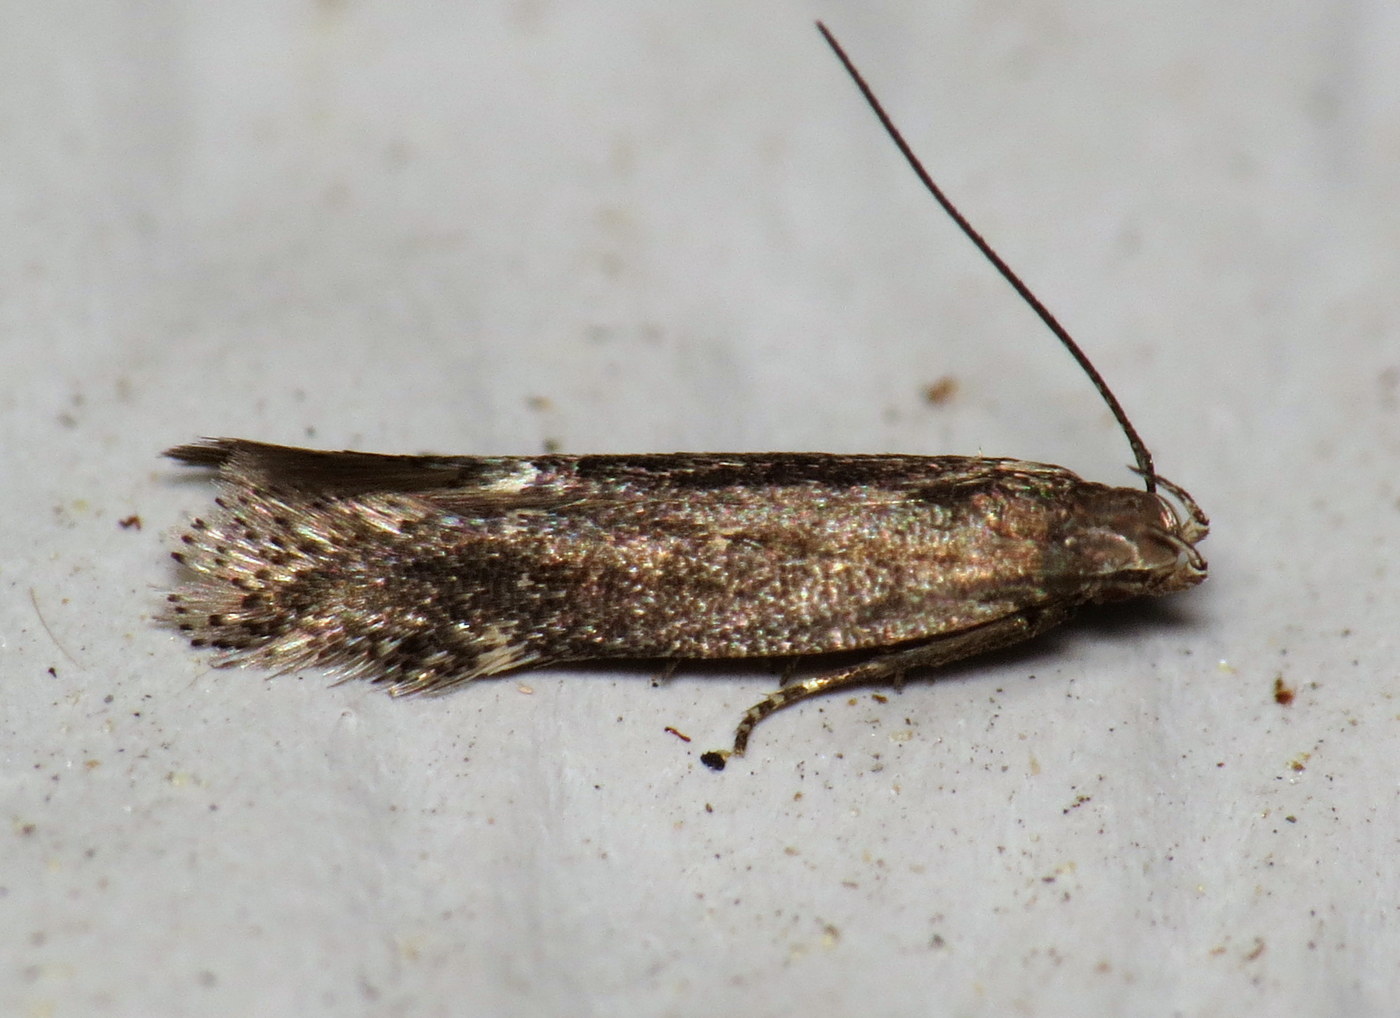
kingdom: Animalia
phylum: Arthropoda
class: Insecta
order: Lepidoptera
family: Gelechiidae
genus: Aproaerema
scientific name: Aproaerema palpilineella
